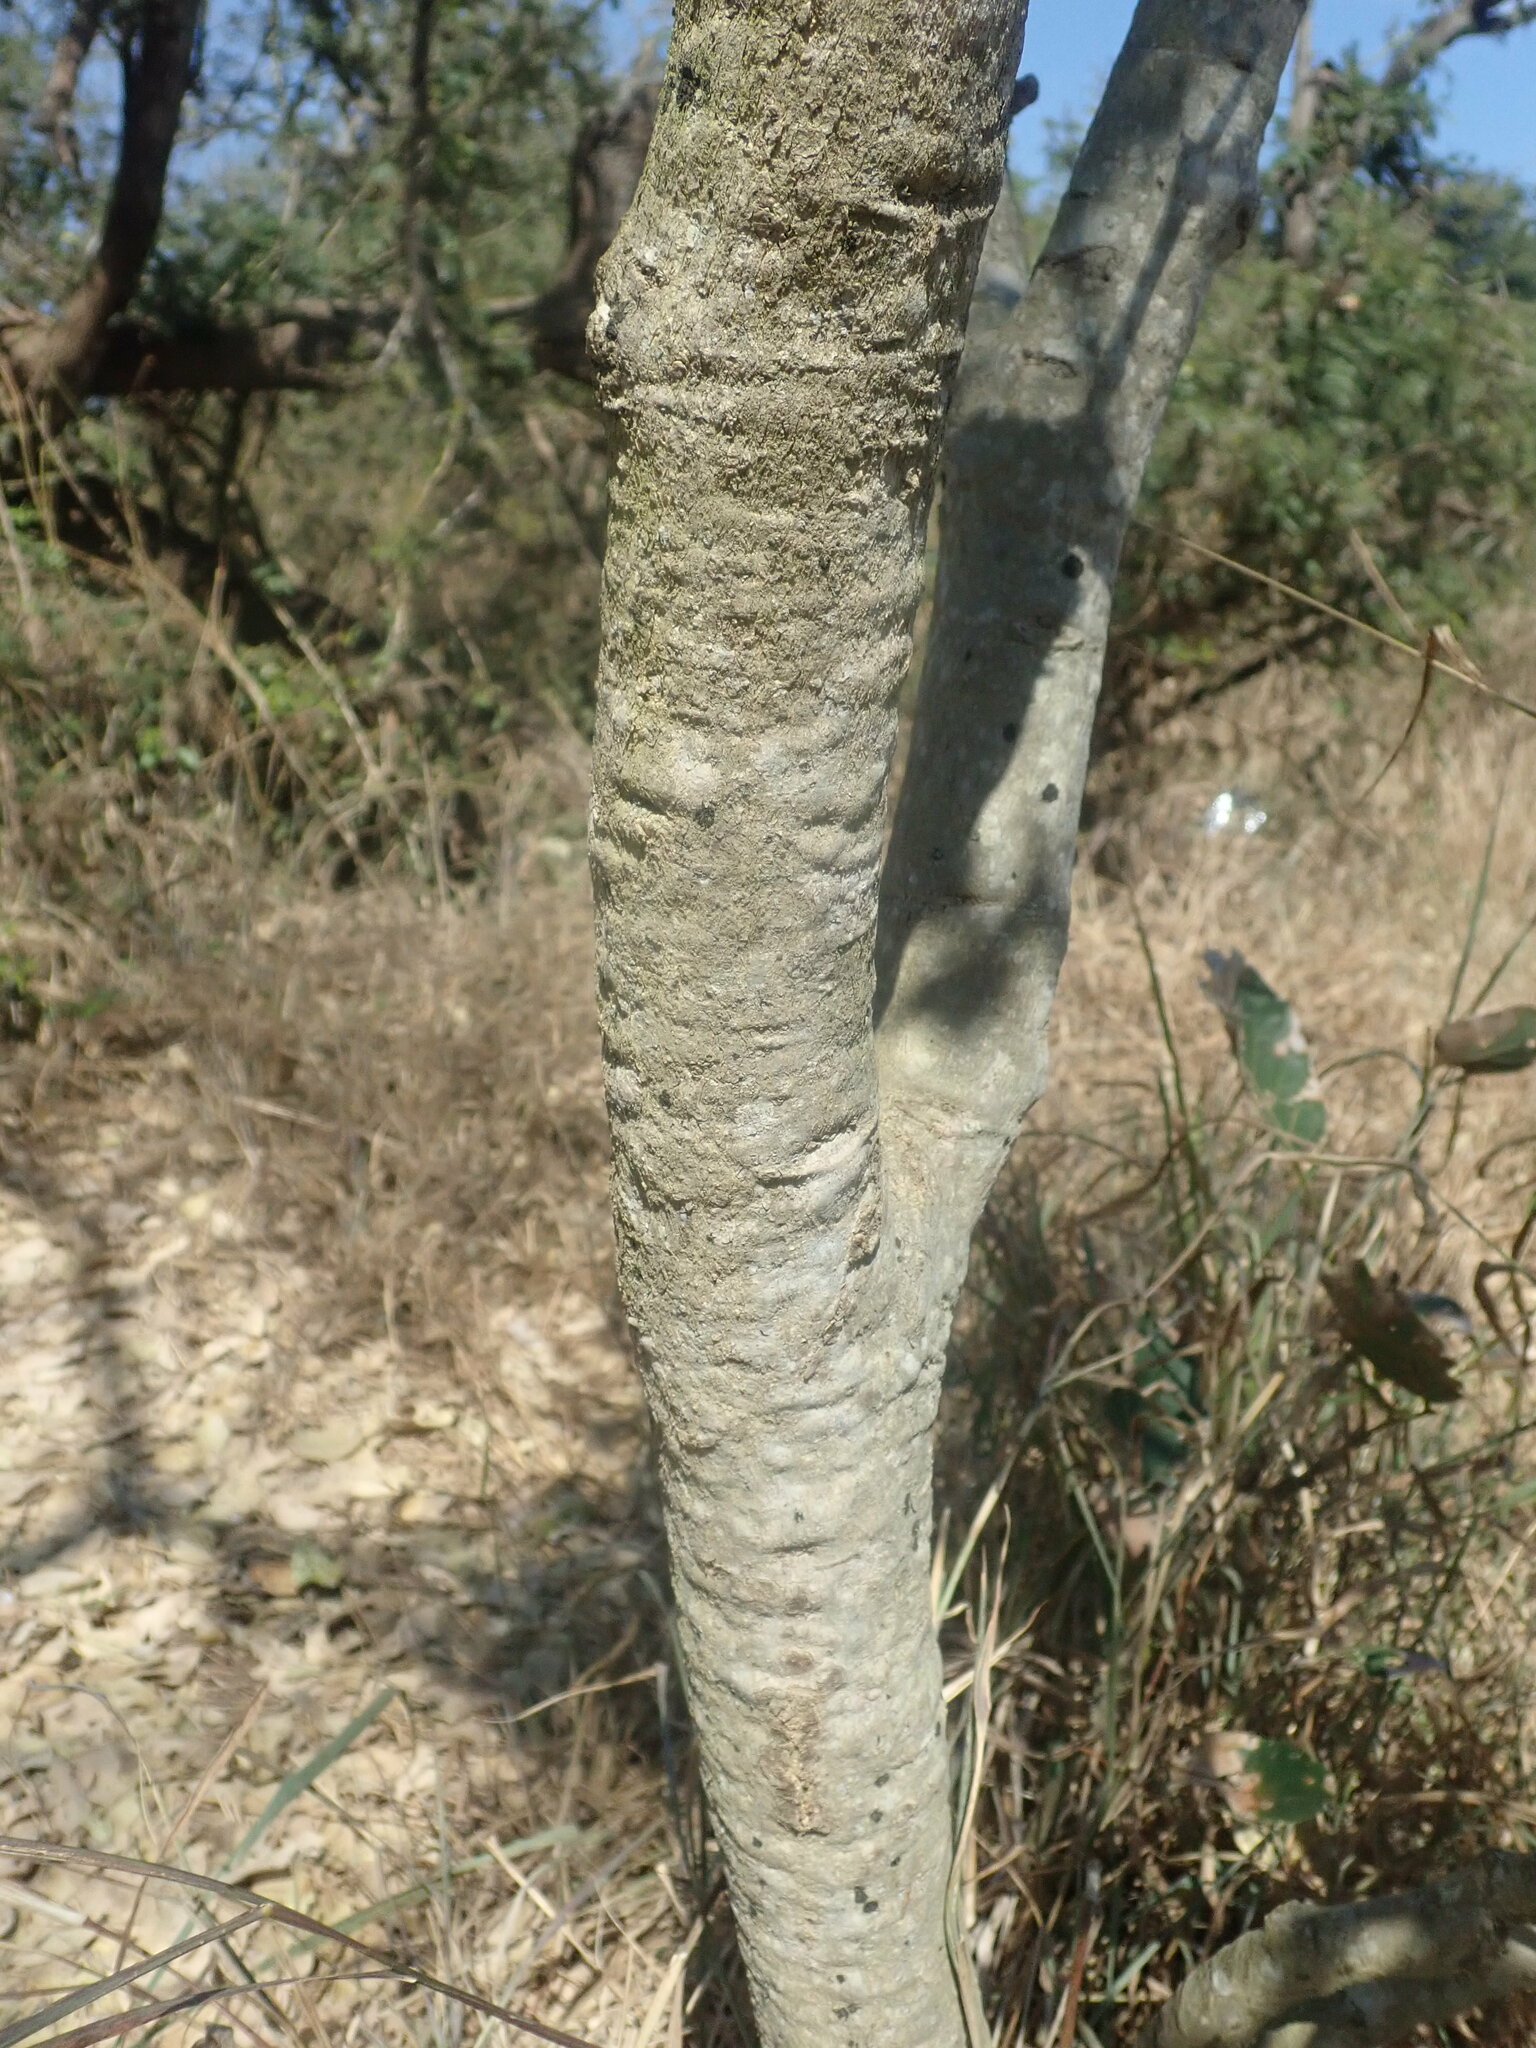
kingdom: Plantae
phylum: Tracheophyta
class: Magnoliopsida
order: Fabales
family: Fabaceae
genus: Philenoptera
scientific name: Philenoptera violacea
